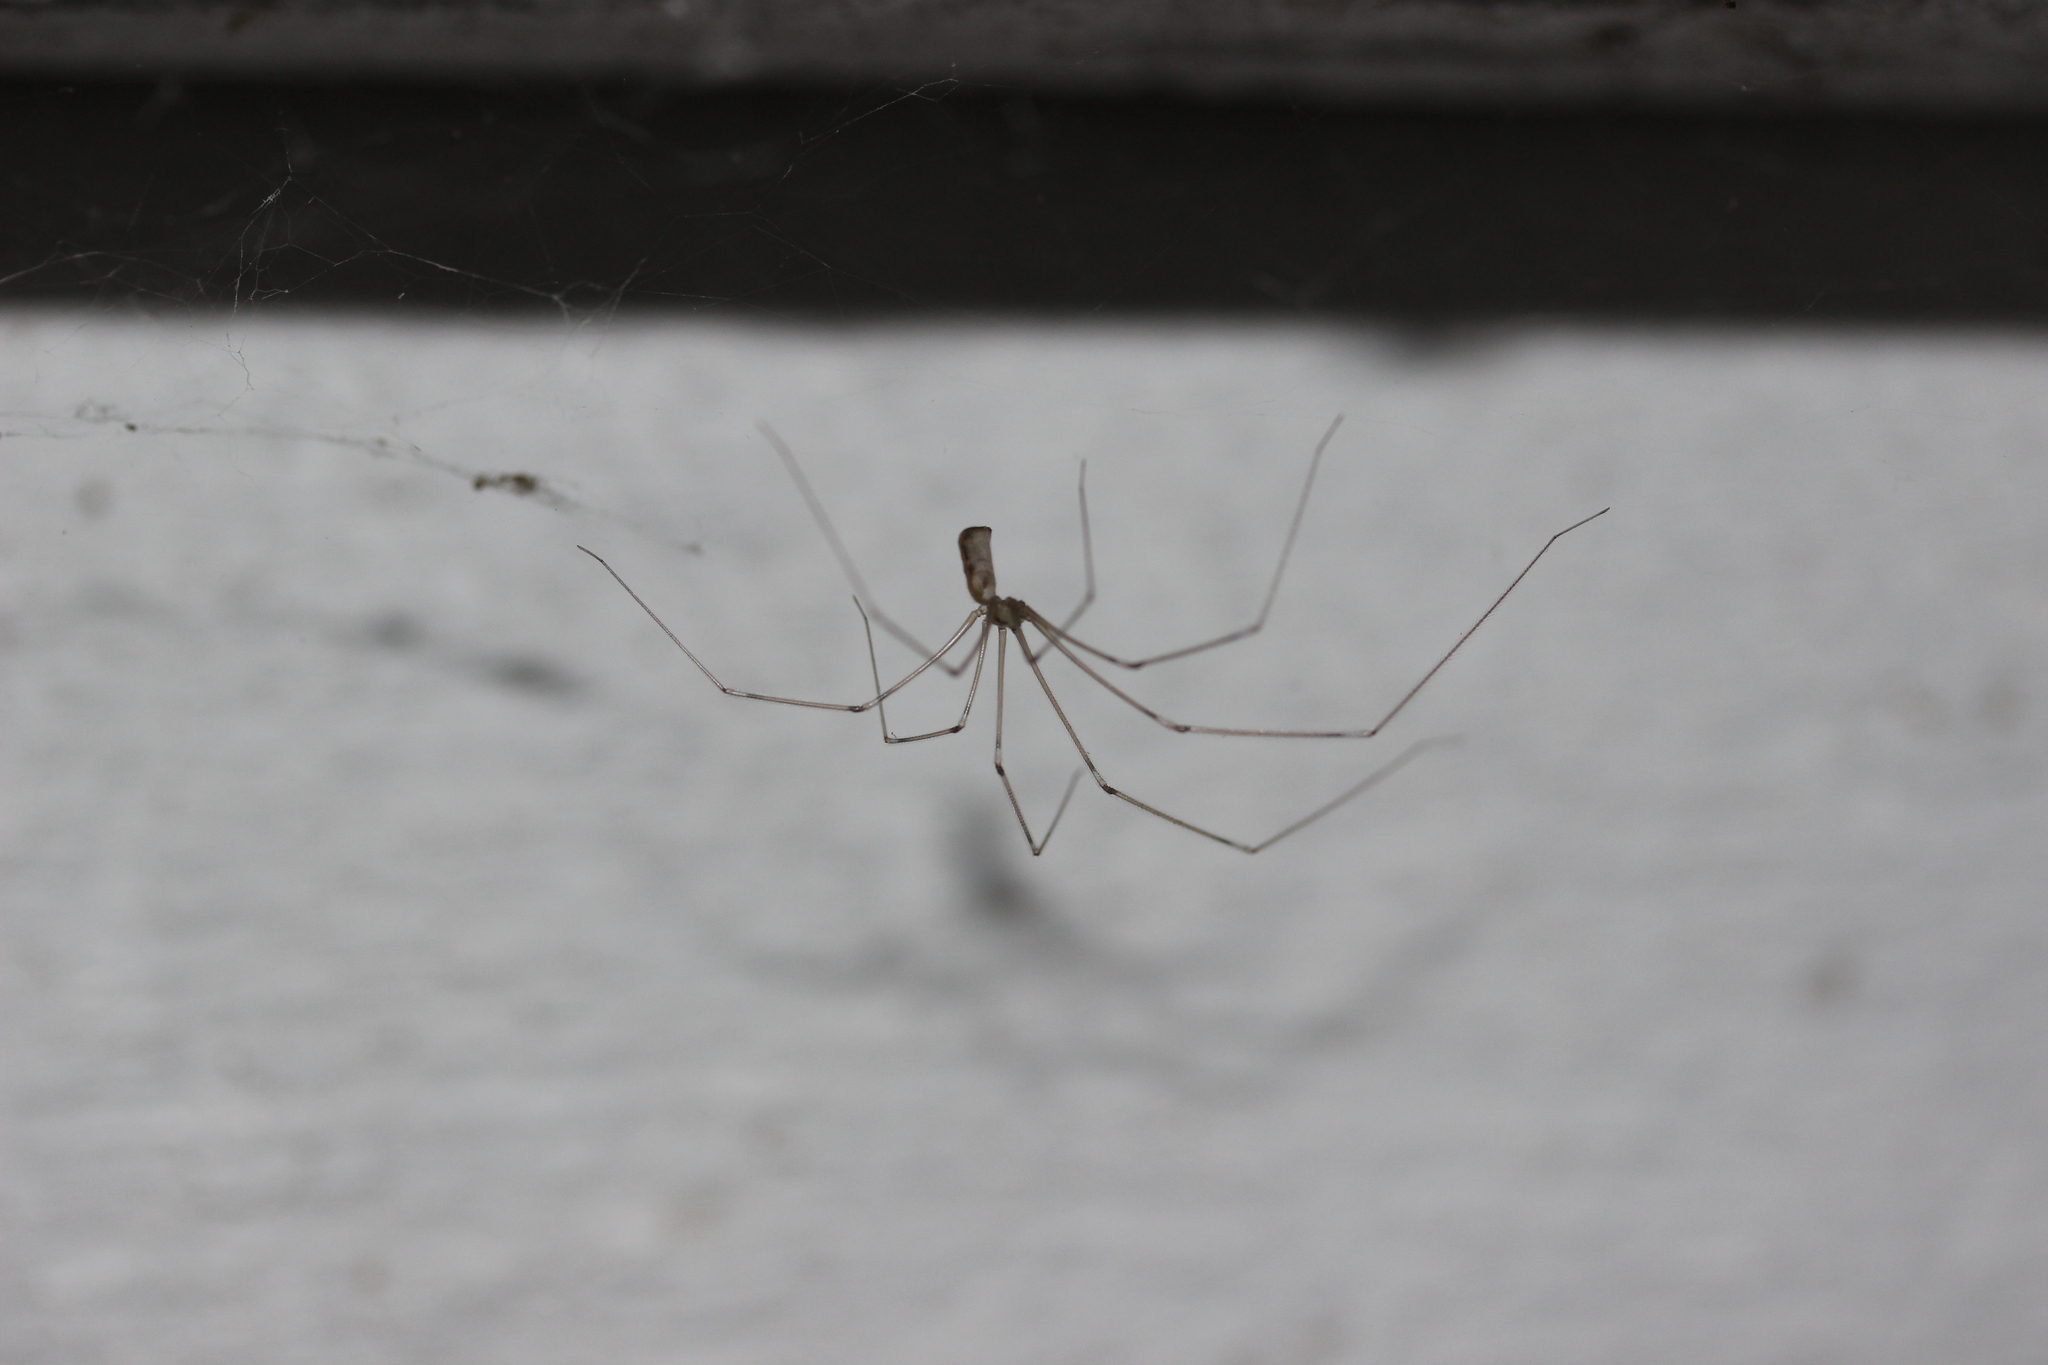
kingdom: Animalia
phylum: Arthropoda
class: Arachnida
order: Araneae
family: Pholcidae
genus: Pholcus
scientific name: Pholcus phalangioides
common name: Longbodied cellar spider
